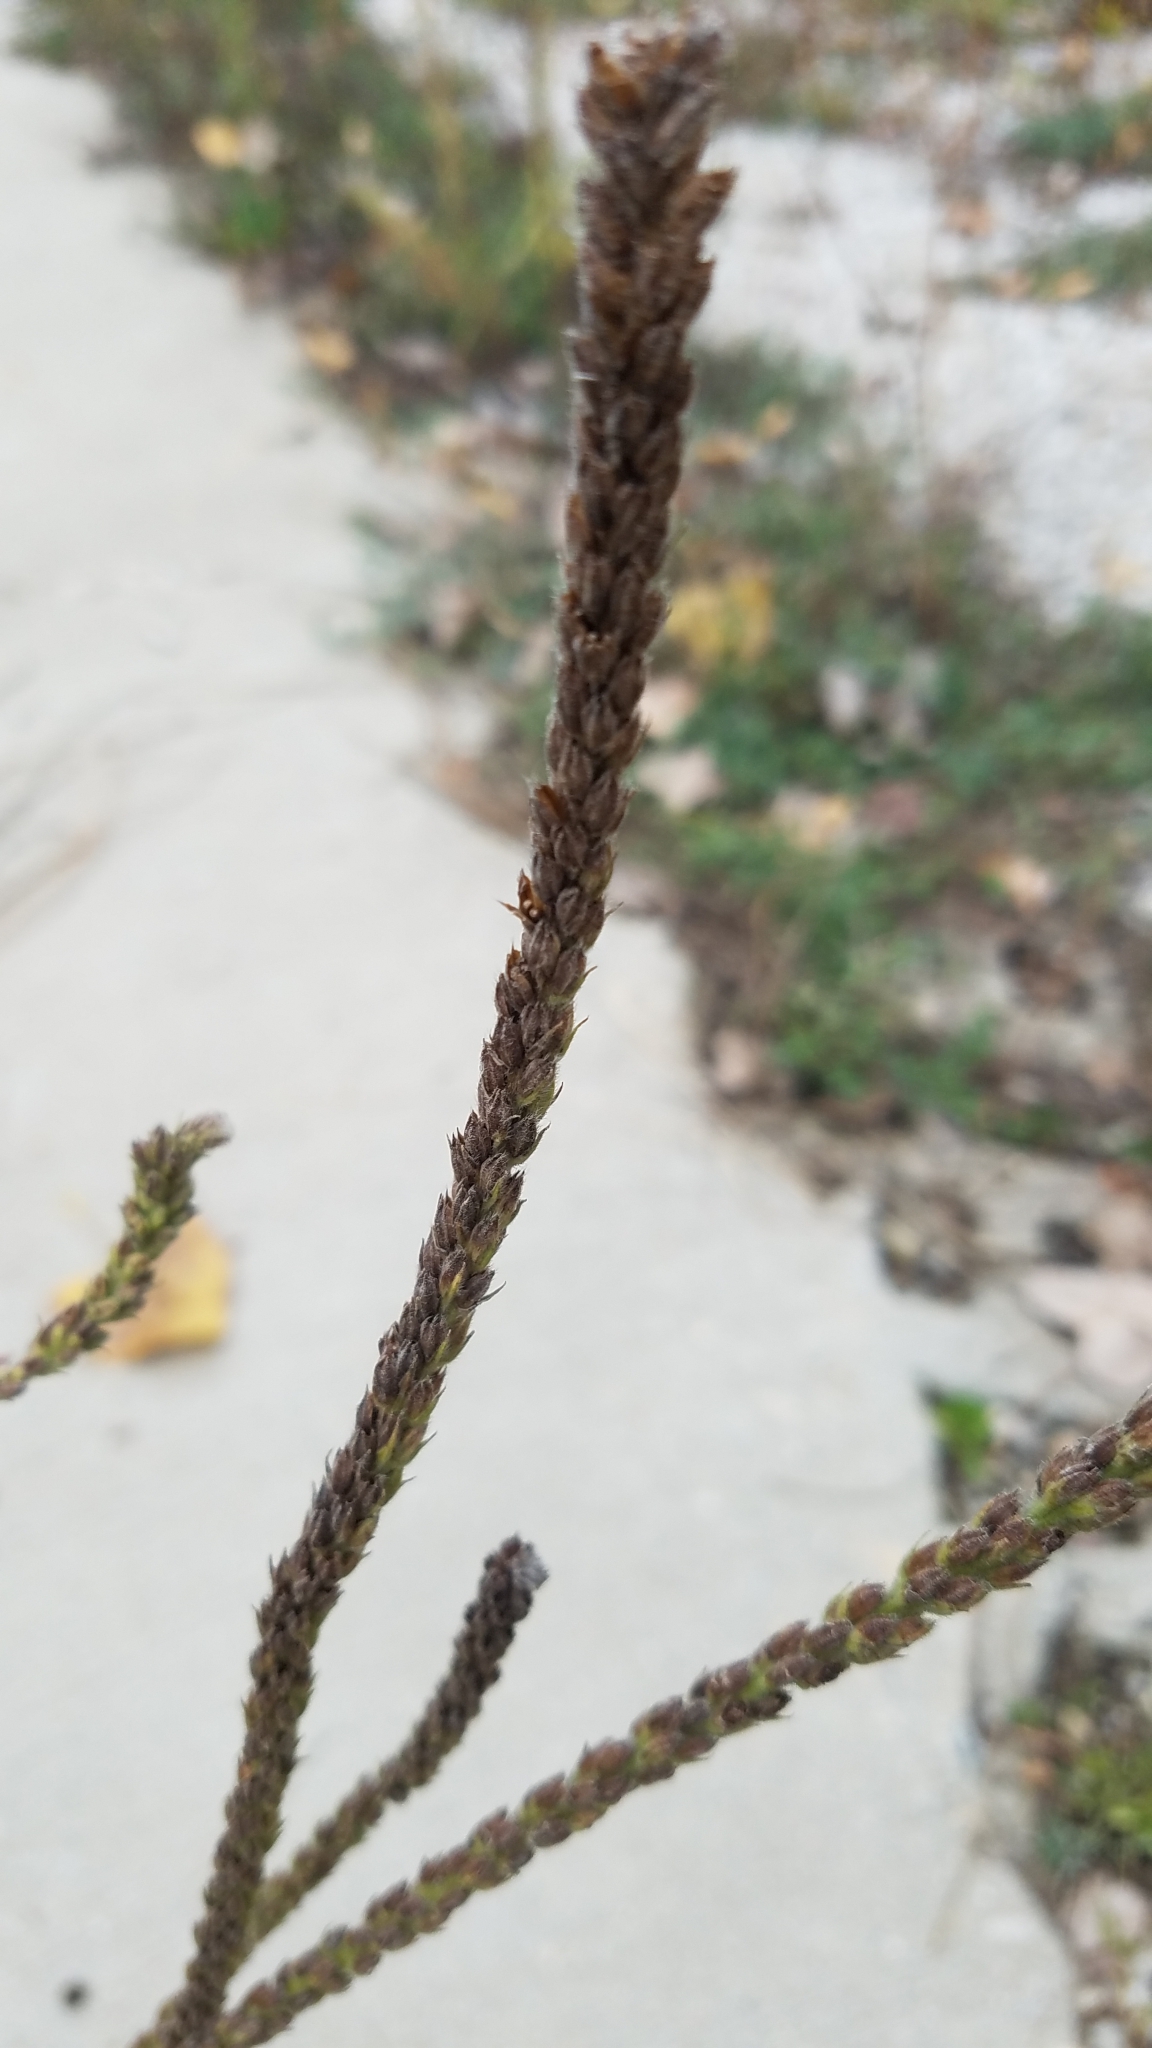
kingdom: Plantae
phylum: Tracheophyta
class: Magnoliopsida
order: Lamiales
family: Verbenaceae
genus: Verbena
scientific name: Verbena stricta
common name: Hoary vervain
